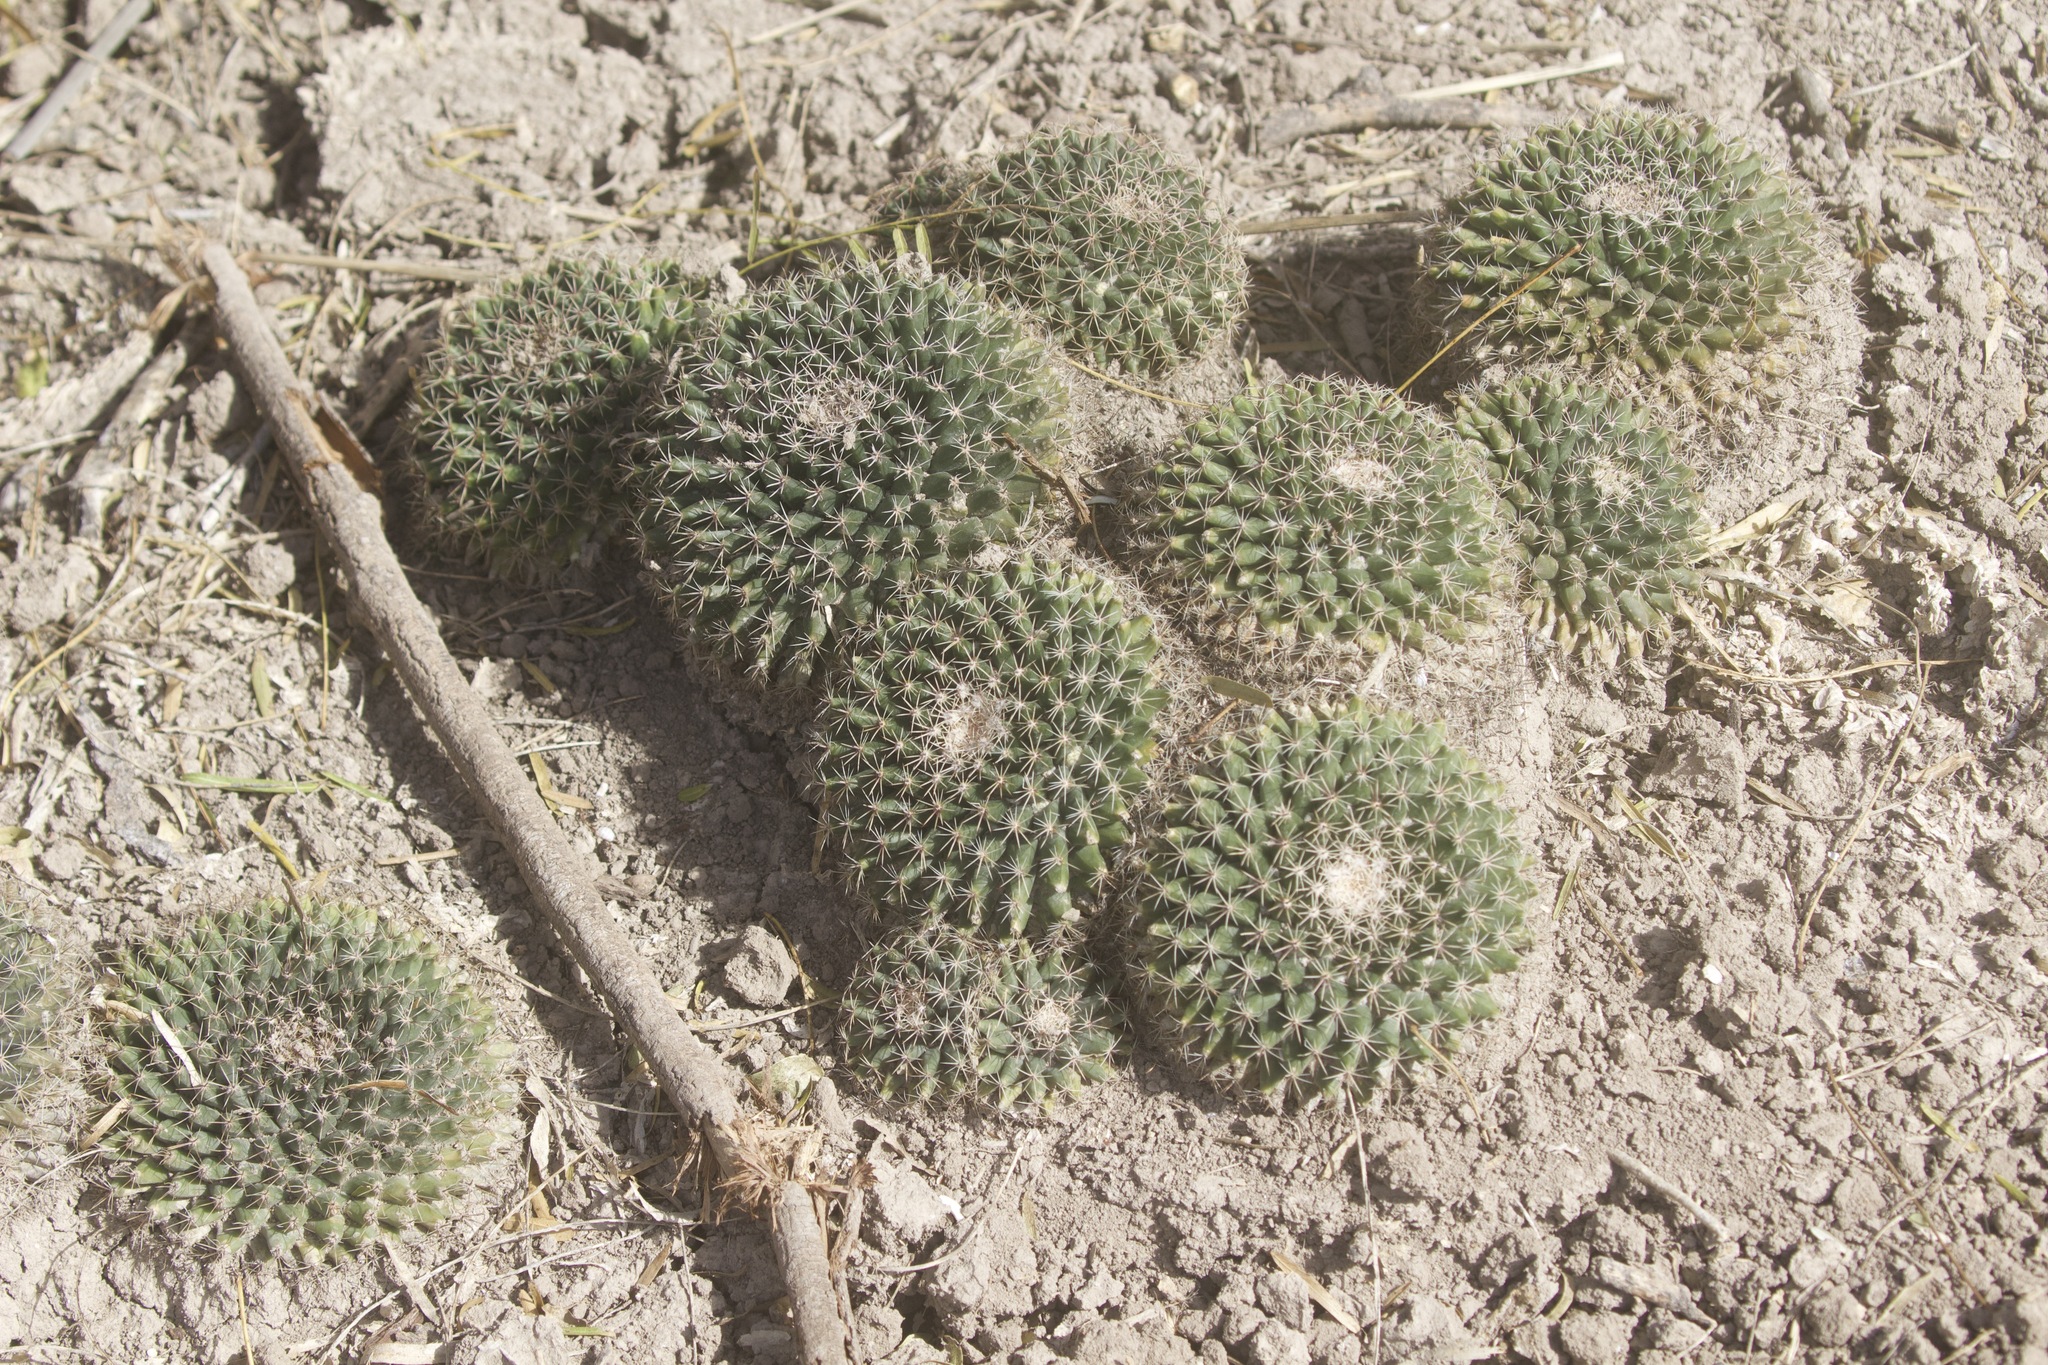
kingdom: Plantae
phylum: Tracheophyta
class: Magnoliopsida
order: Caryophyllales
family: Cactaceae
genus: Mammillaria
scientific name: Mammillaria heyderi
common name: Little nipple cactus
